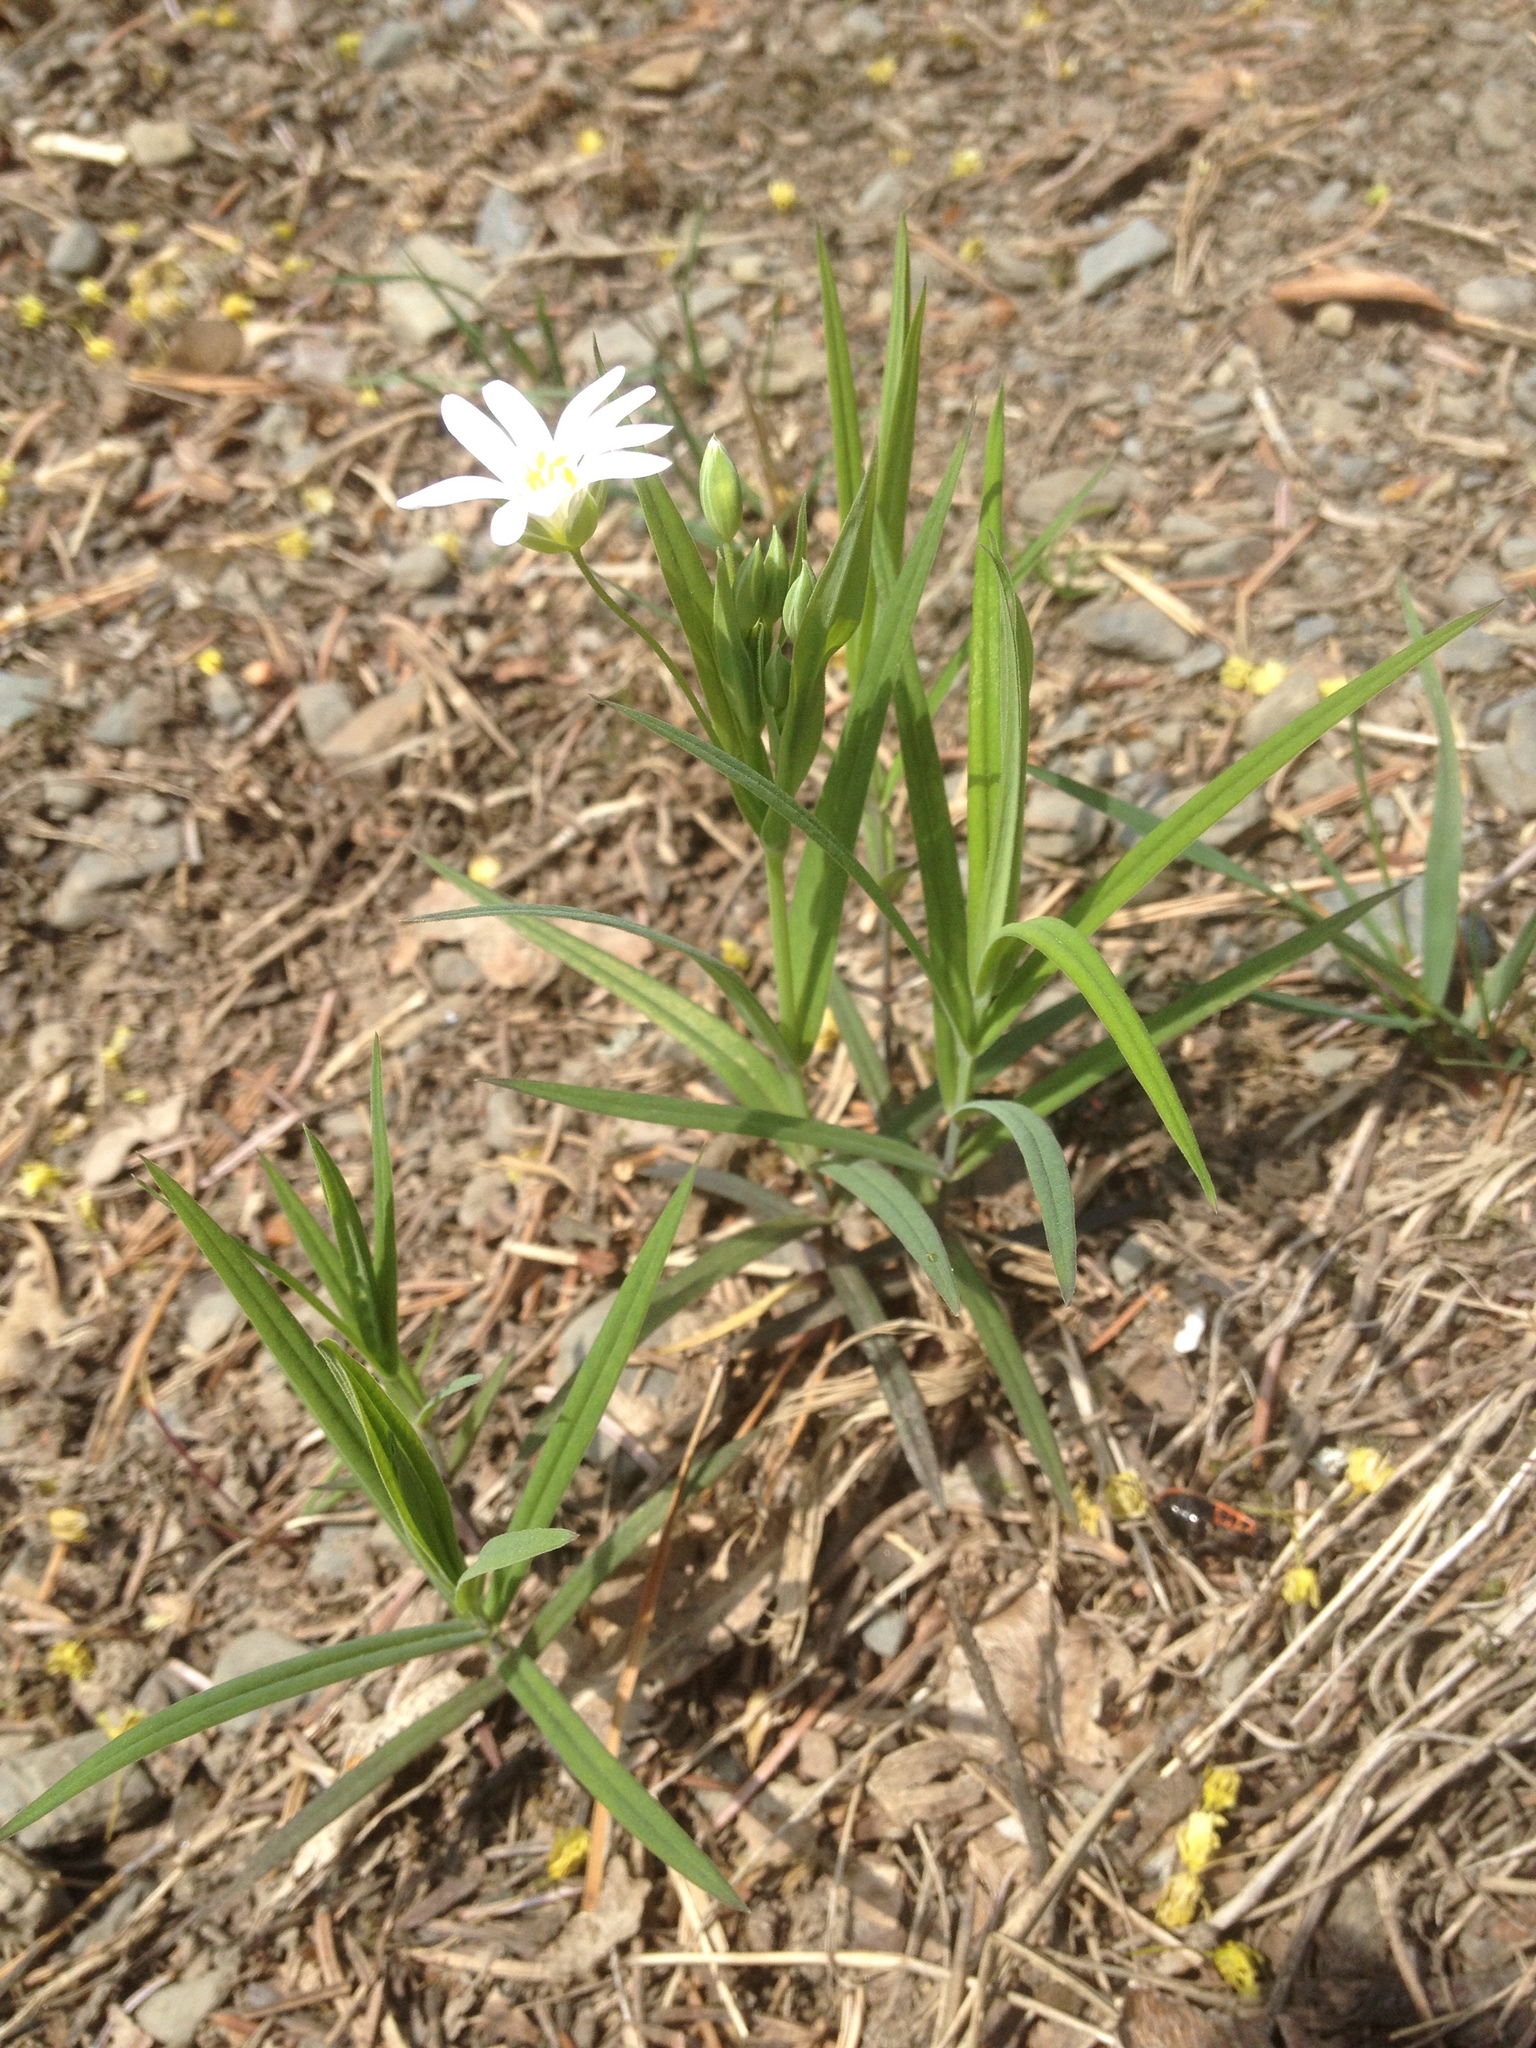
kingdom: Plantae
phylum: Tracheophyta
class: Magnoliopsida
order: Caryophyllales
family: Caryophyllaceae
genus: Rabelera
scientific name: Rabelera holostea
